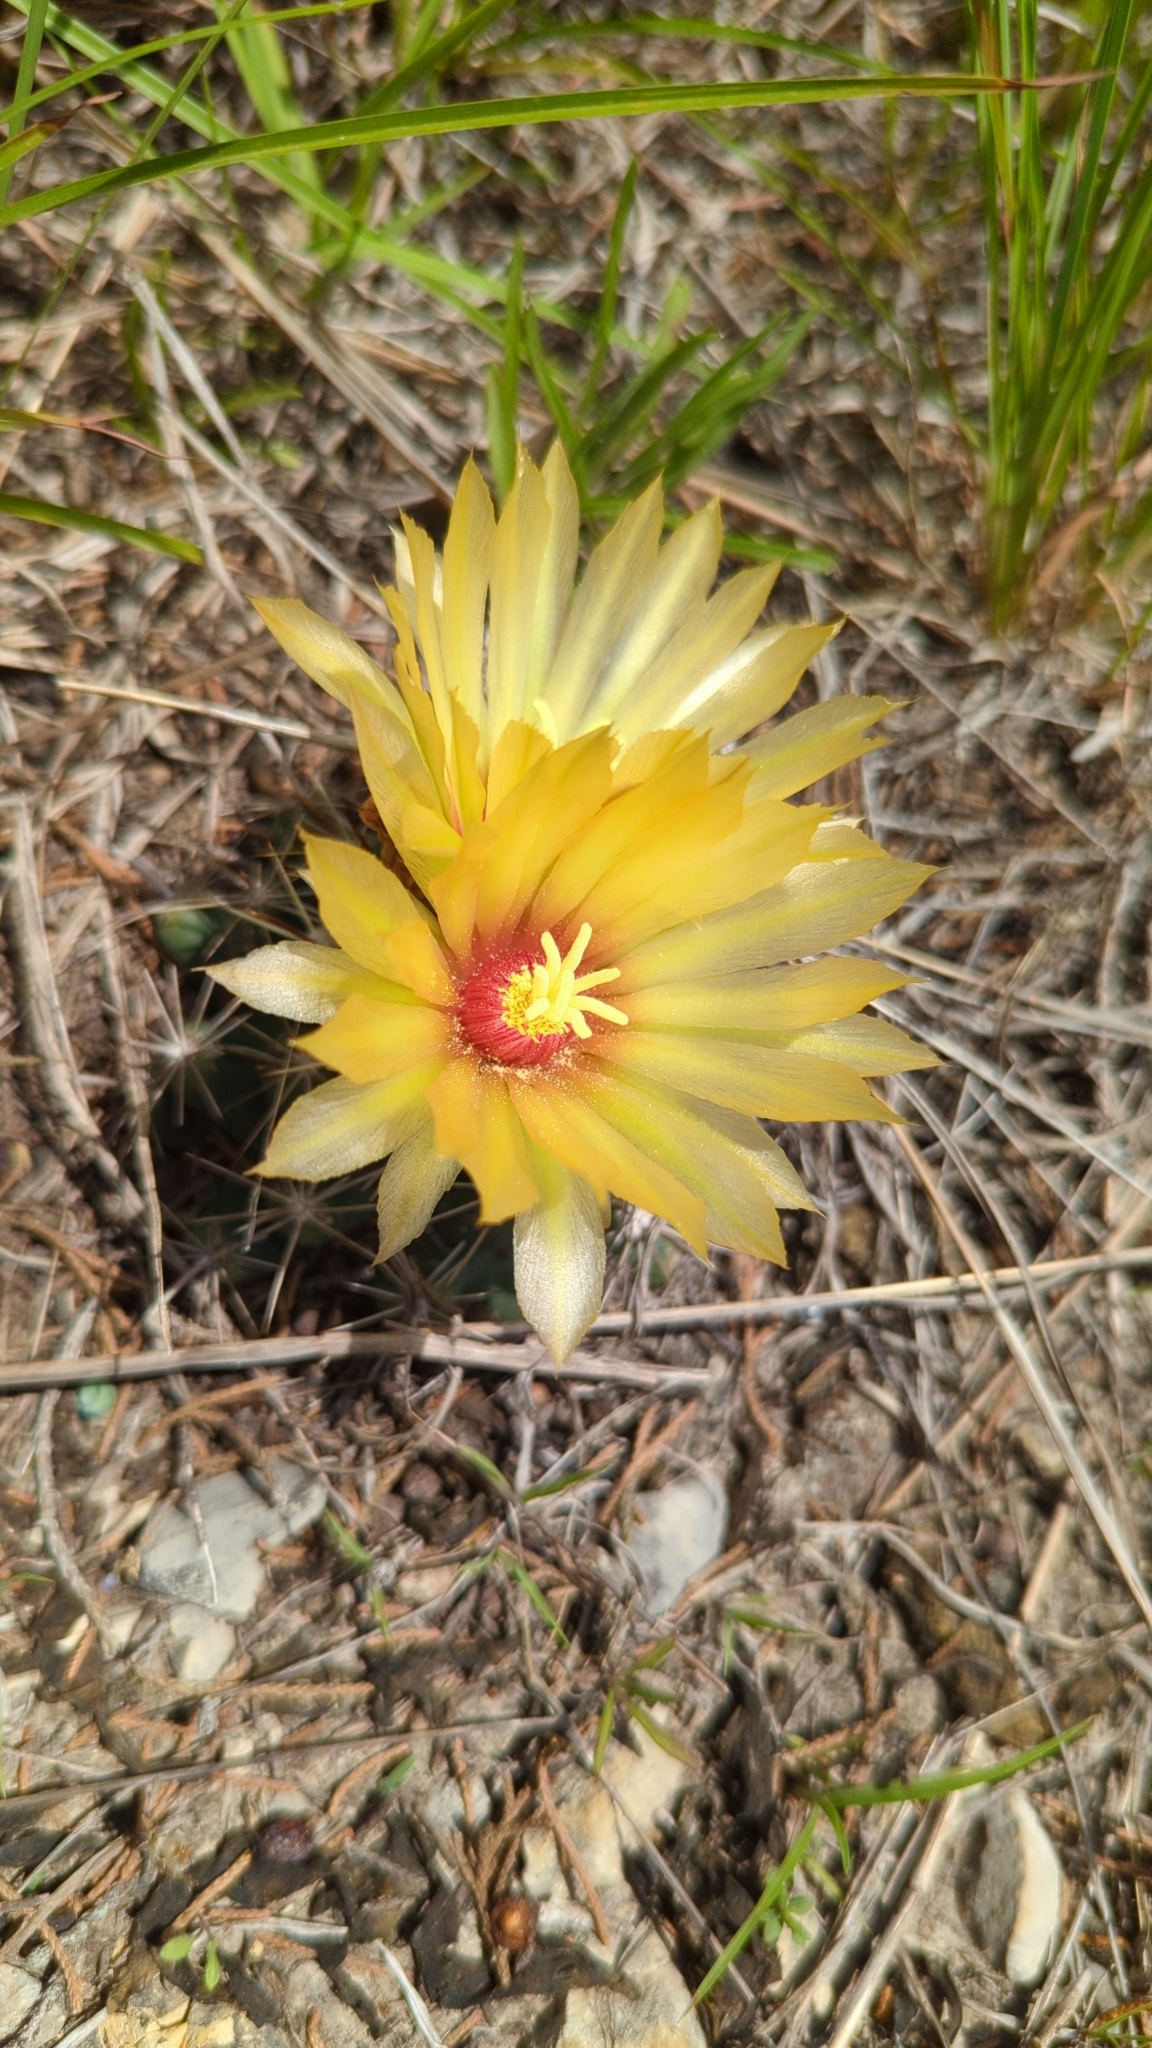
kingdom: Plantae
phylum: Tracheophyta
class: Magnoliopsida
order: Caryophyllales
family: Cactaceae
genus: Coryphantha
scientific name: Coryphantha sulcata
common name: Finger cactus
